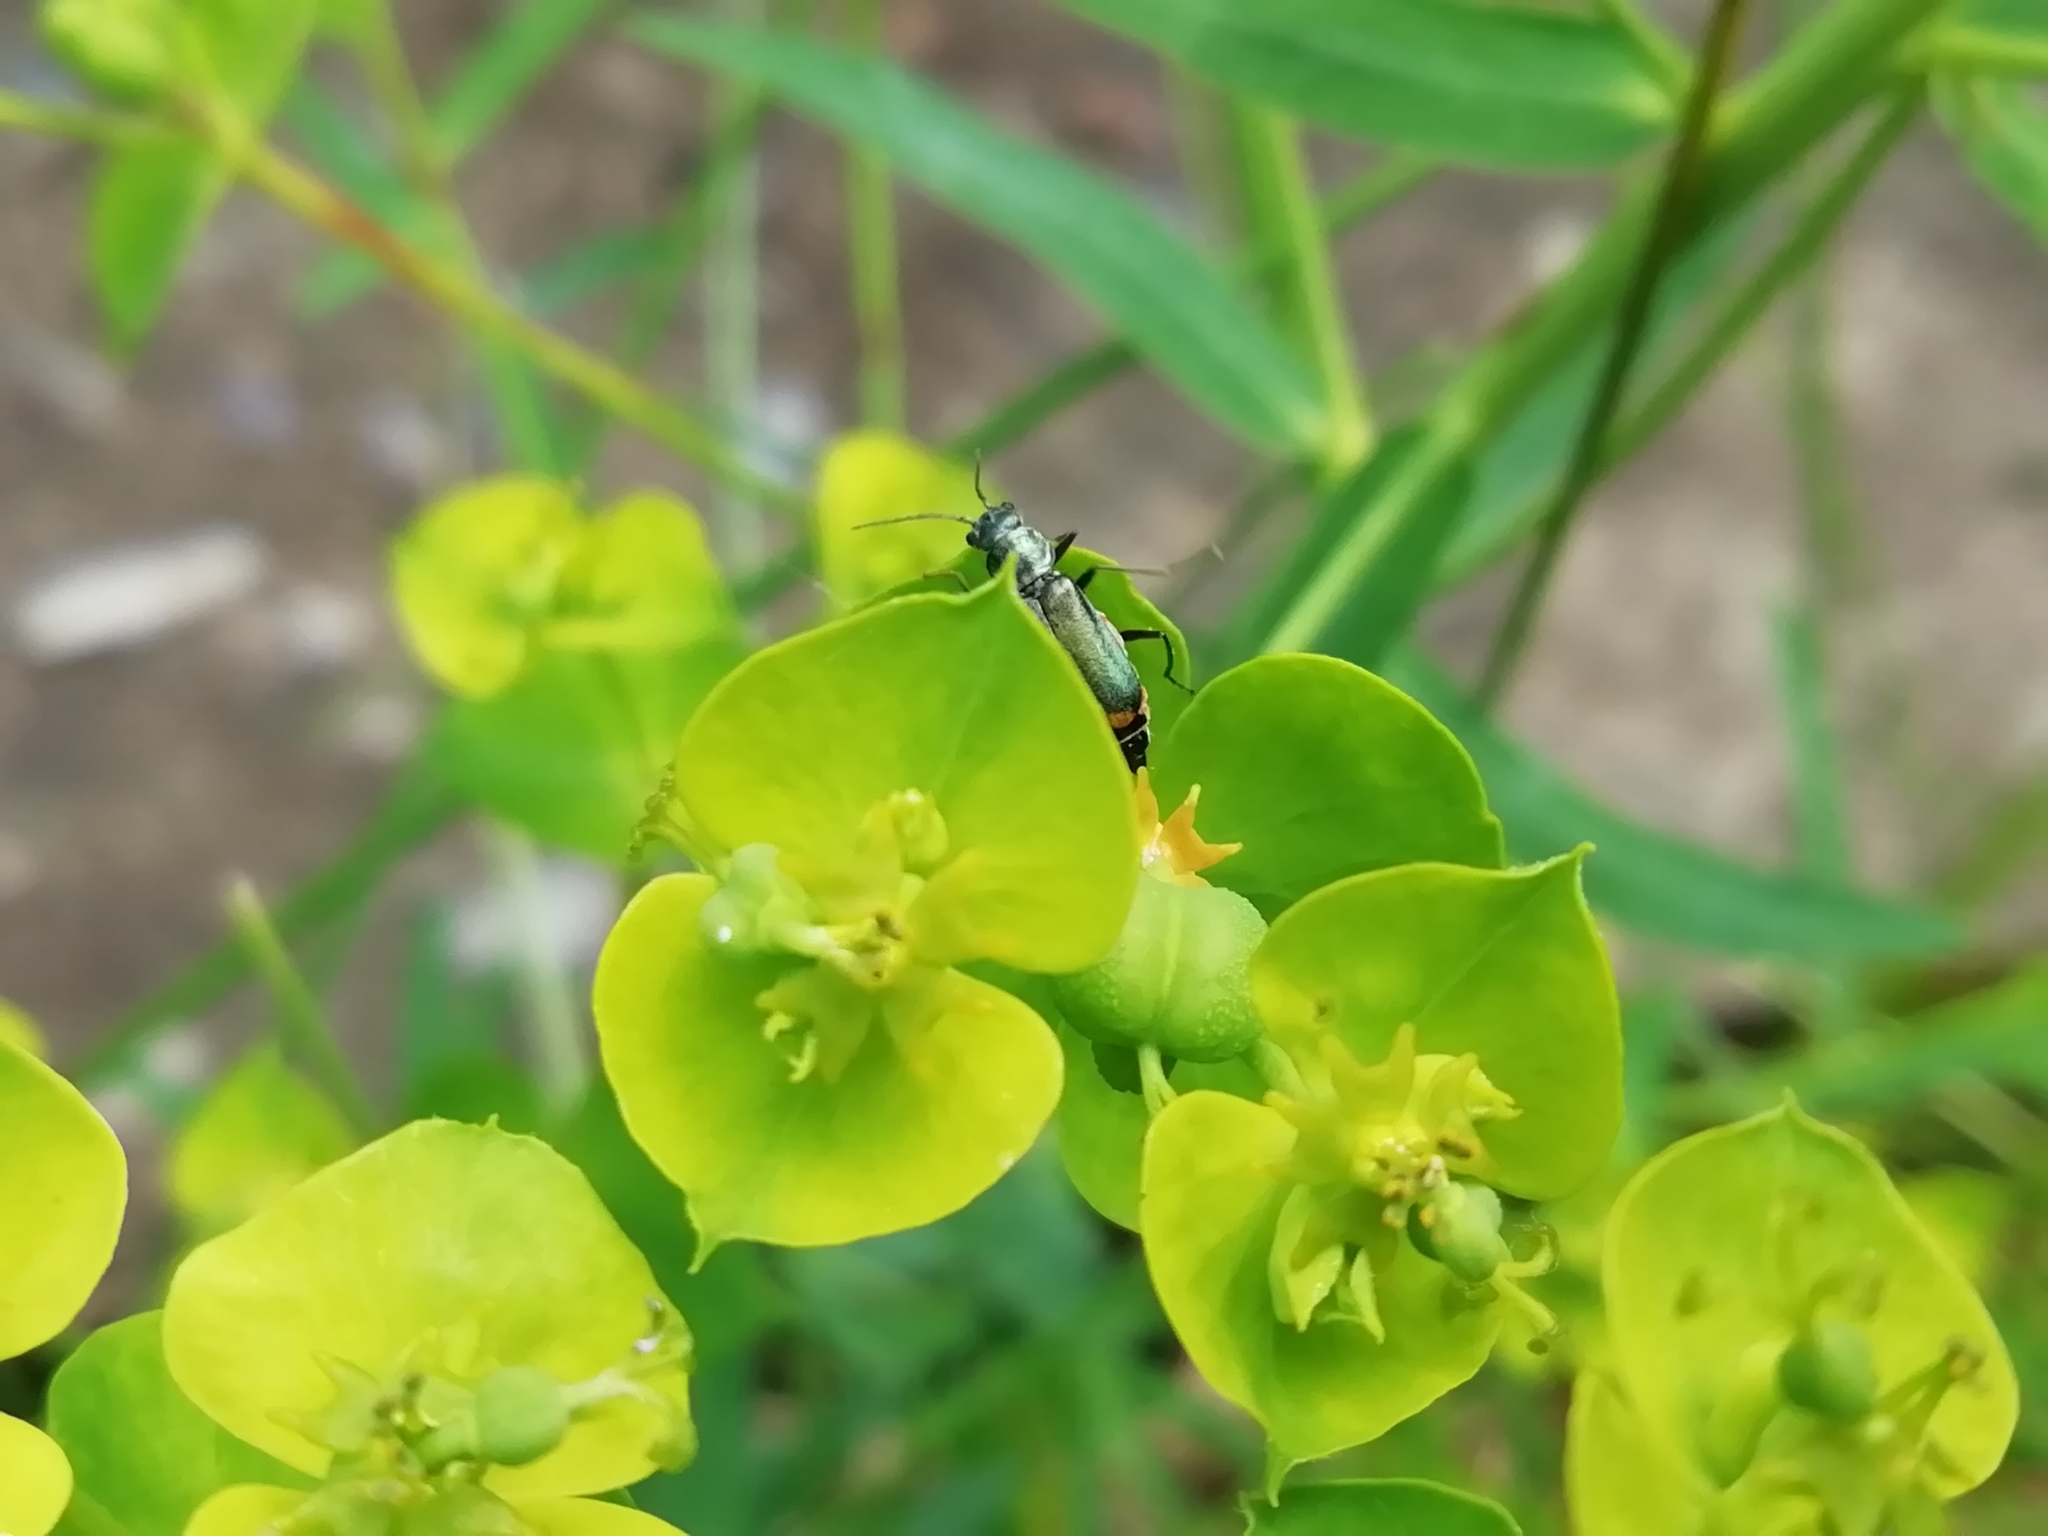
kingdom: Animalia
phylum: Arthropoda
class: Insecta
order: Coleoptera
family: Malachiidae
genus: Clanoptilus
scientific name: Clanoptilus geniculatus
